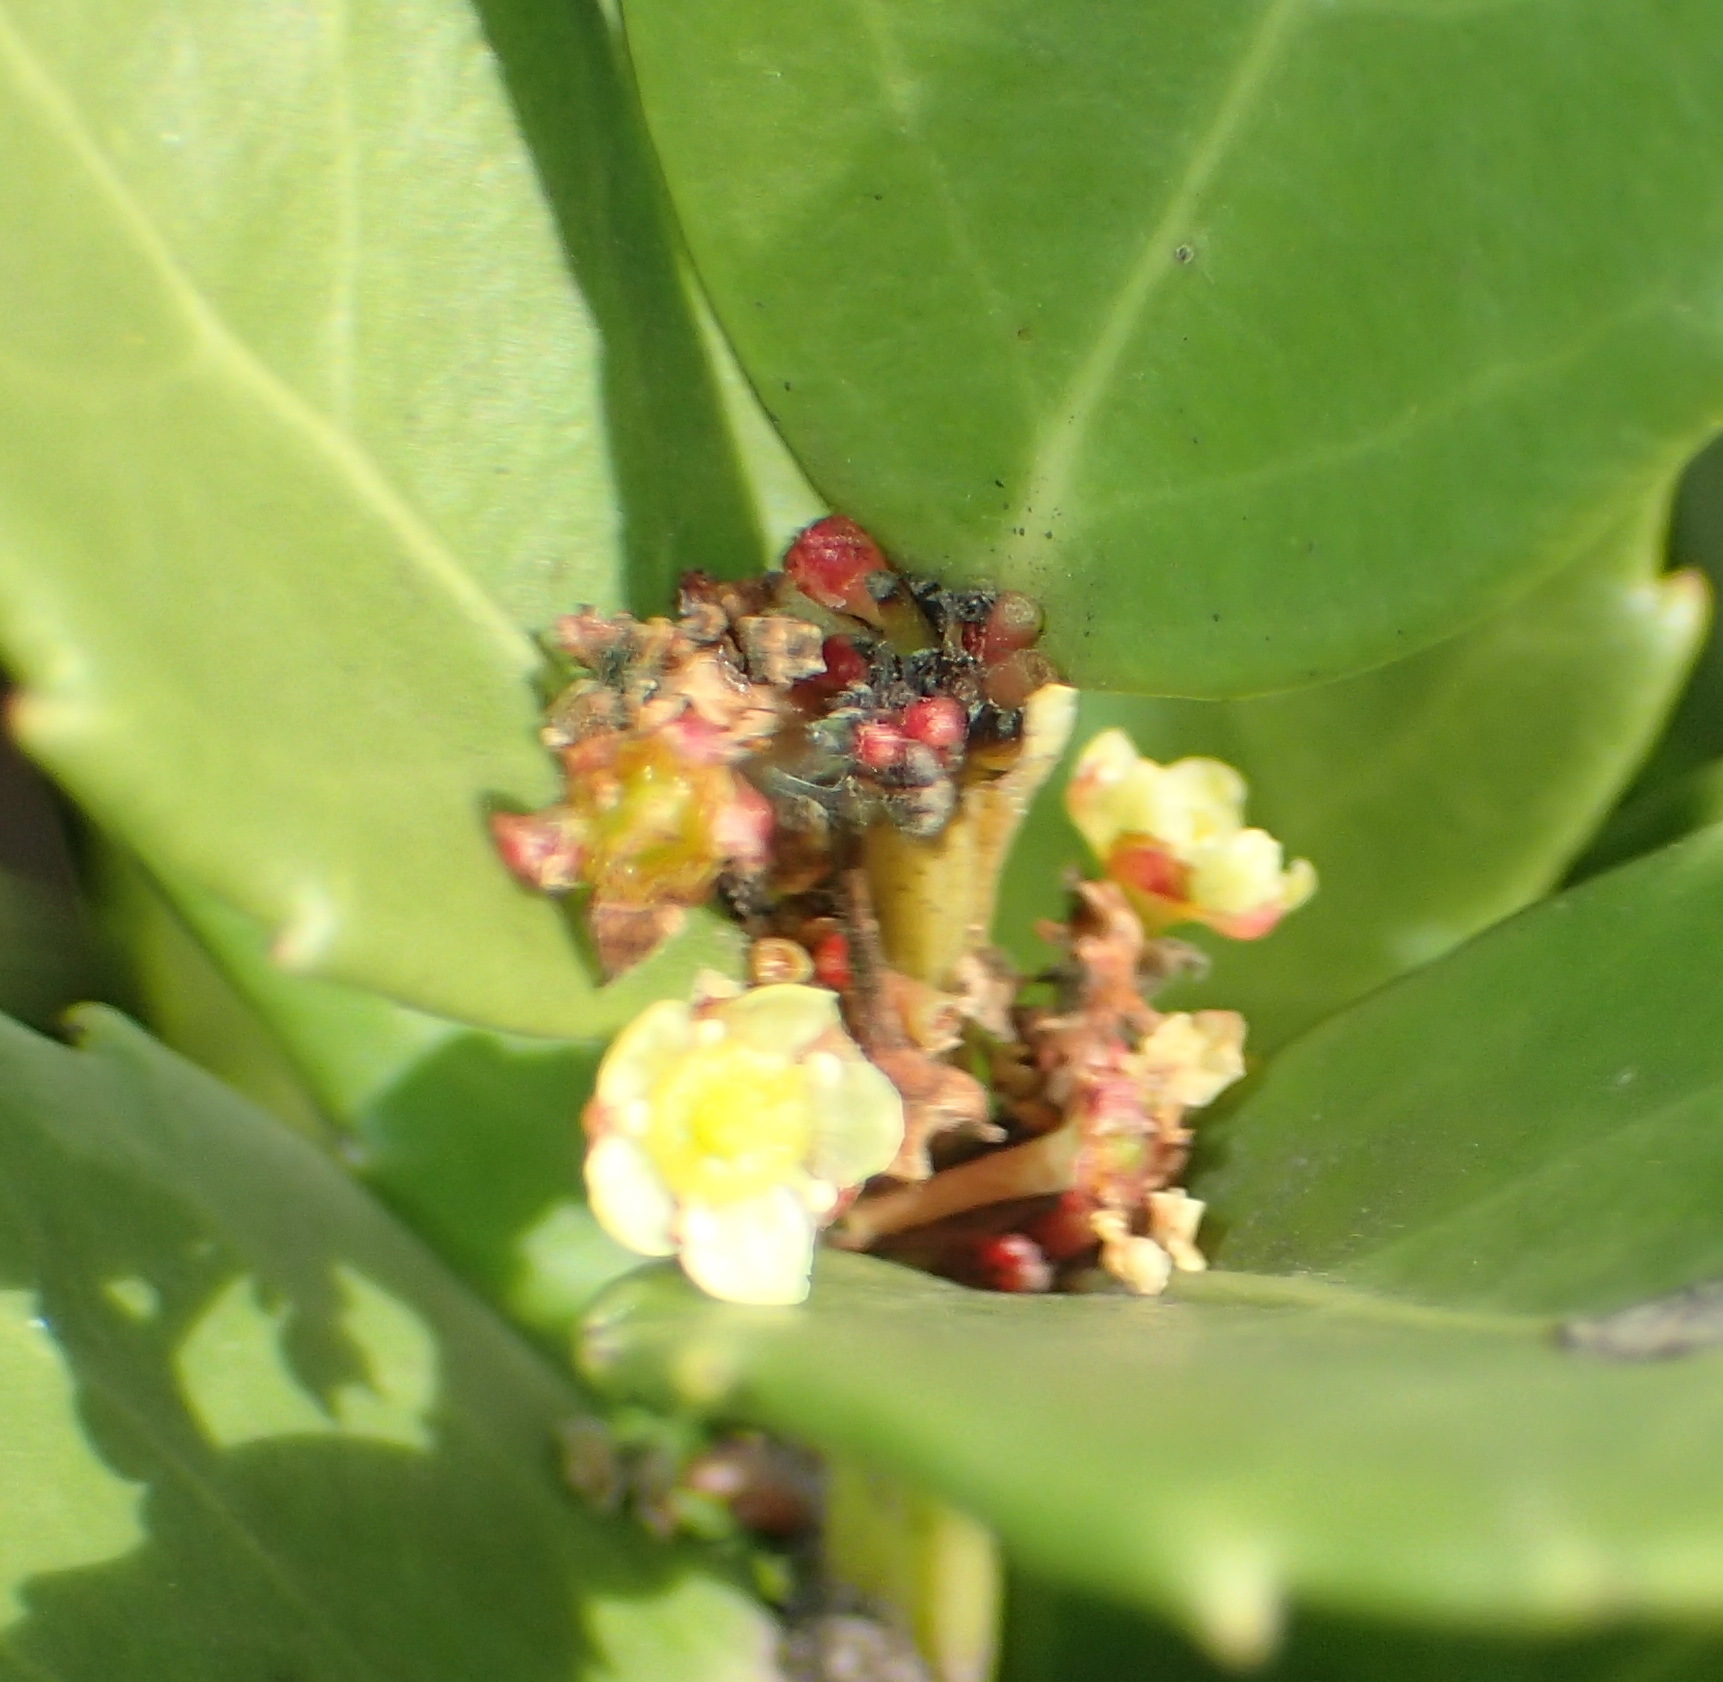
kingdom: Plantae
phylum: Tracheophyta
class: Magnoliopsida
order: Celastrales
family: Celastraceae
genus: Gymnosporia
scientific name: Gymnosporia procumbens
